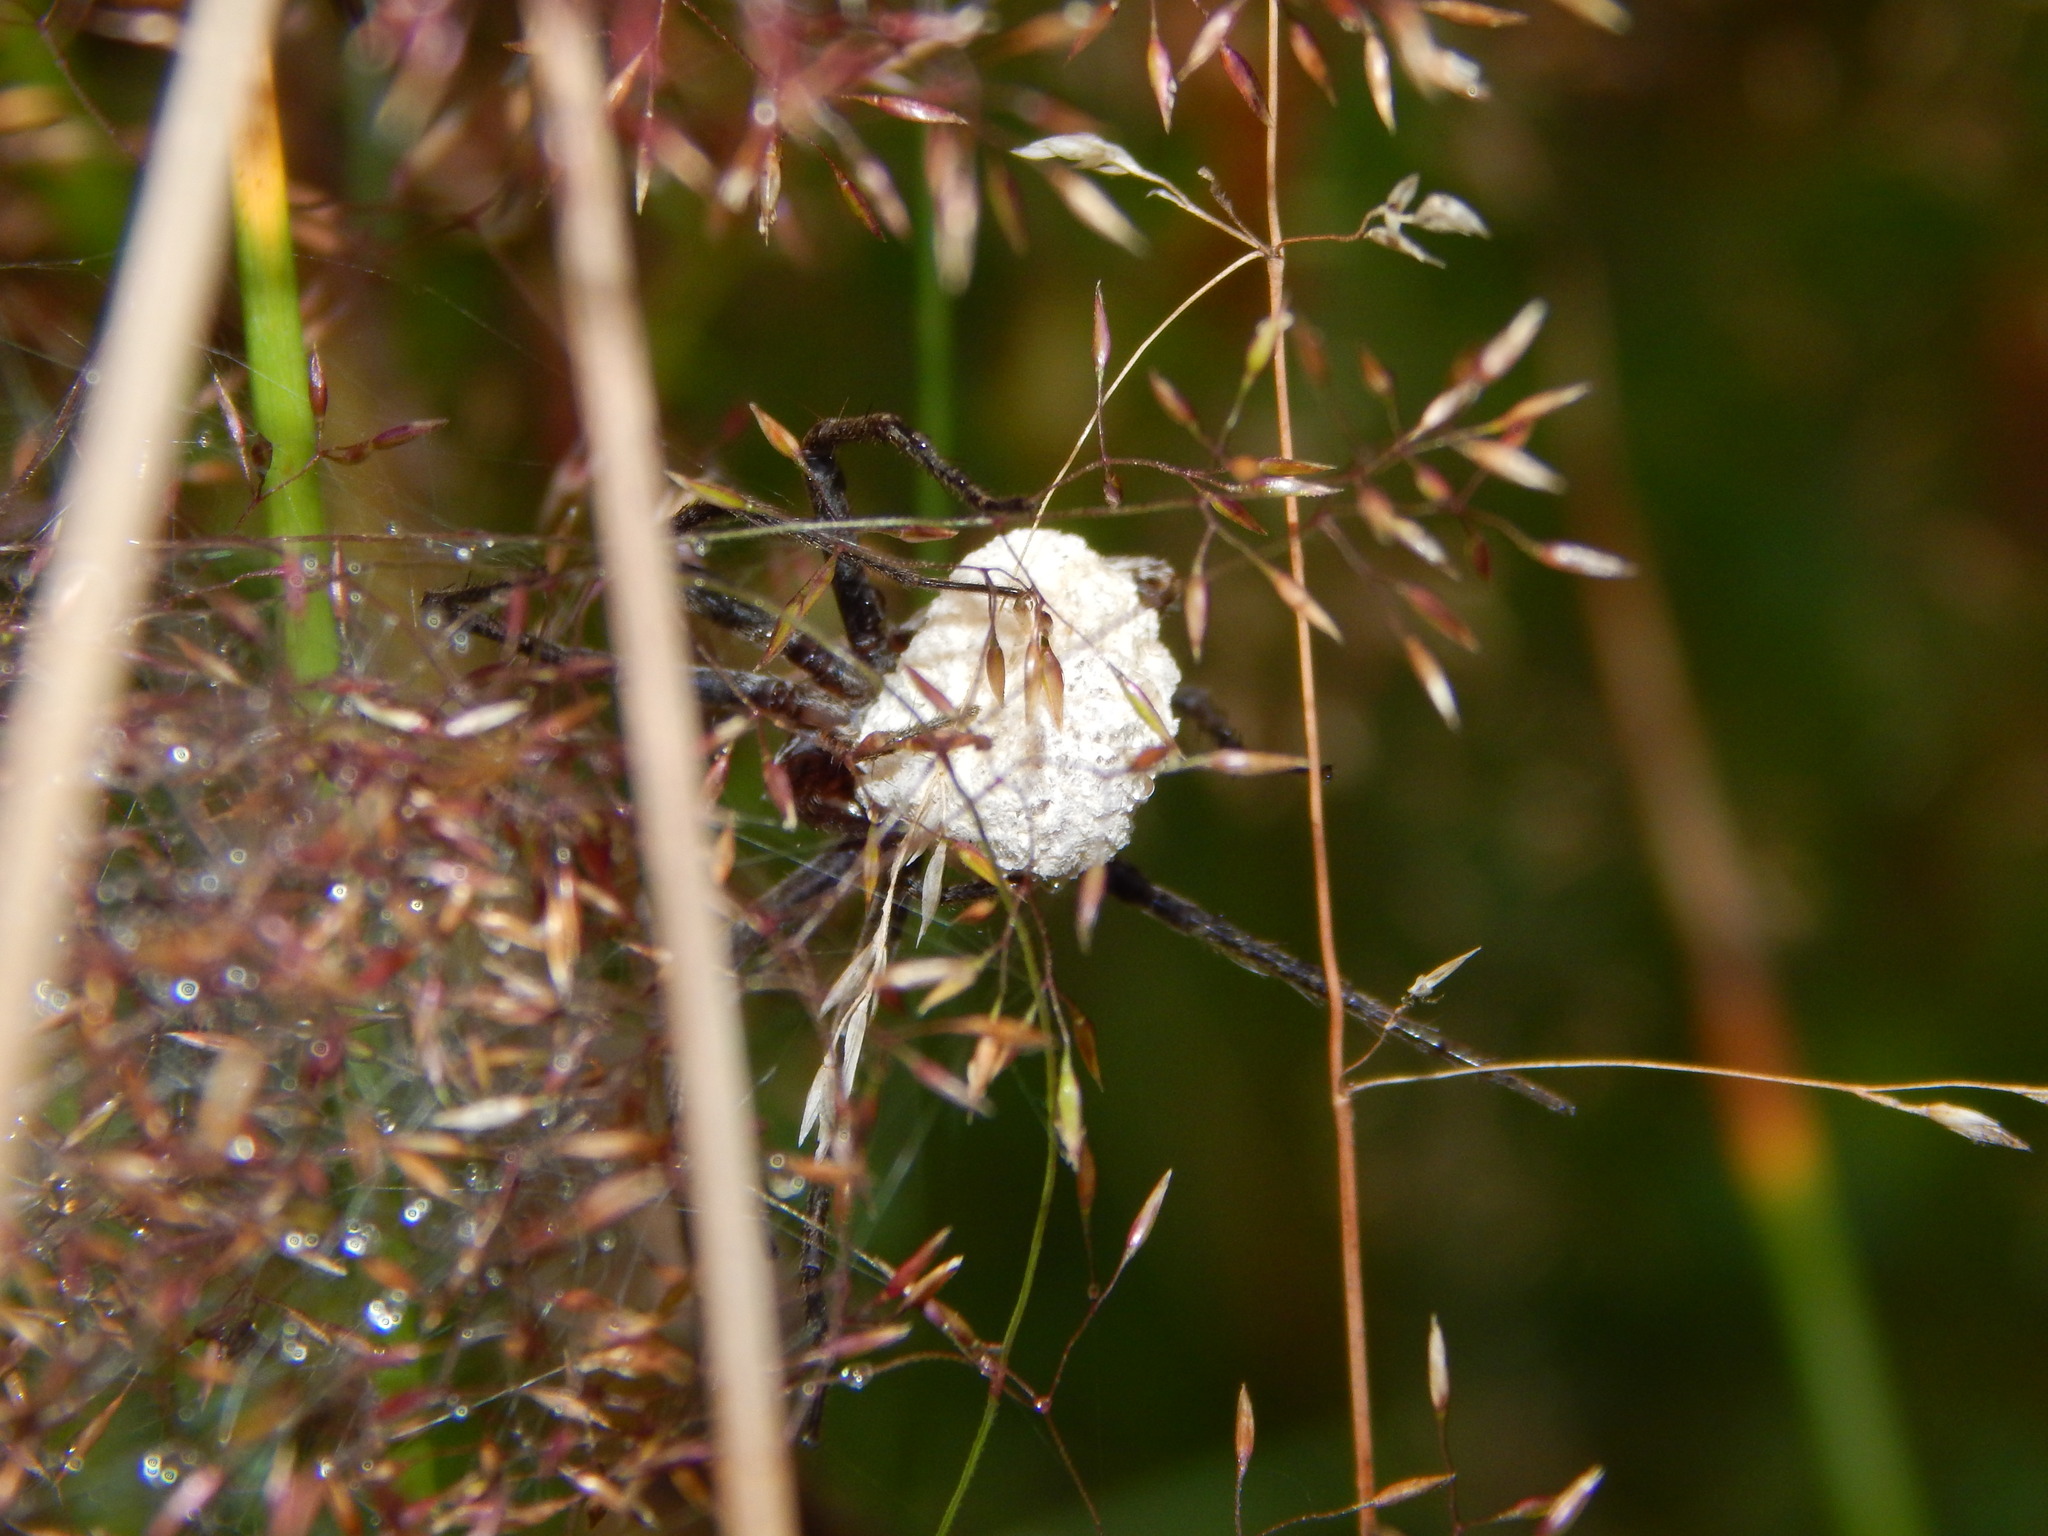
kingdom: Animalia
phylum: Arthropoda
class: Arachnida
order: Araneae
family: Pisauridae
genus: Pisaura
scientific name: Pisaura mirabilis
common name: Tent spider
